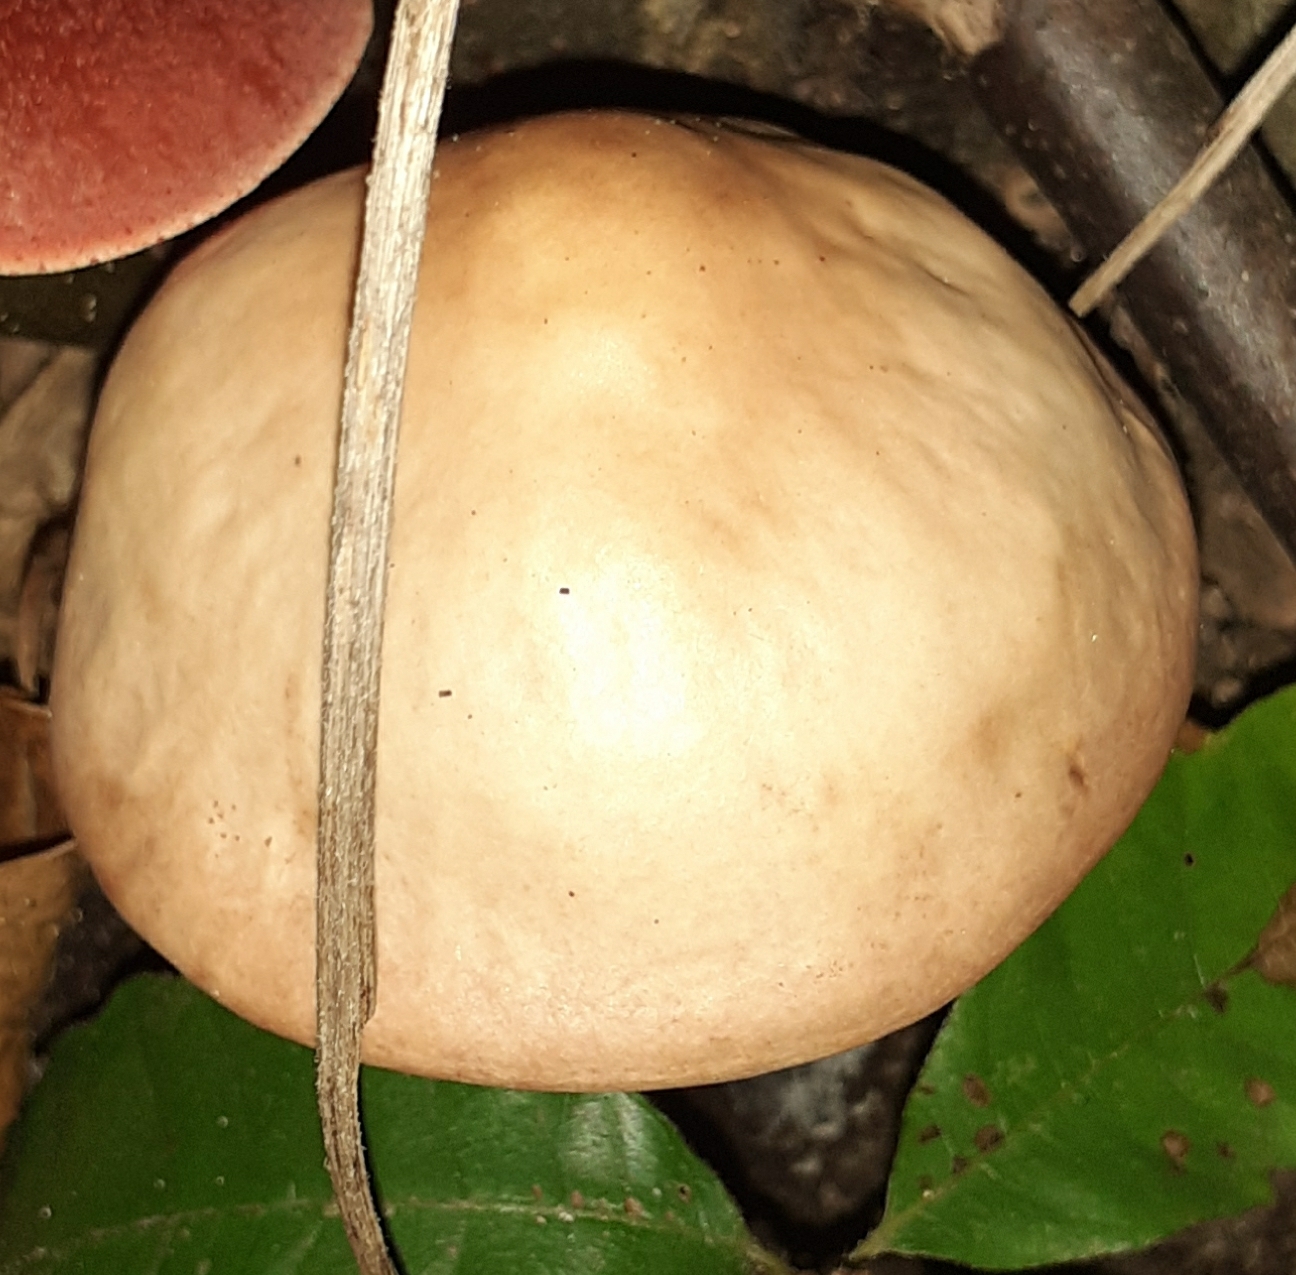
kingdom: Fungi
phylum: Basidiomycota
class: Agaricomycetes
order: Agaricales
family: Omphalotaceae
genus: Gymnopus
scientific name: Gymnopus fusipes
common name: Spindle shank
